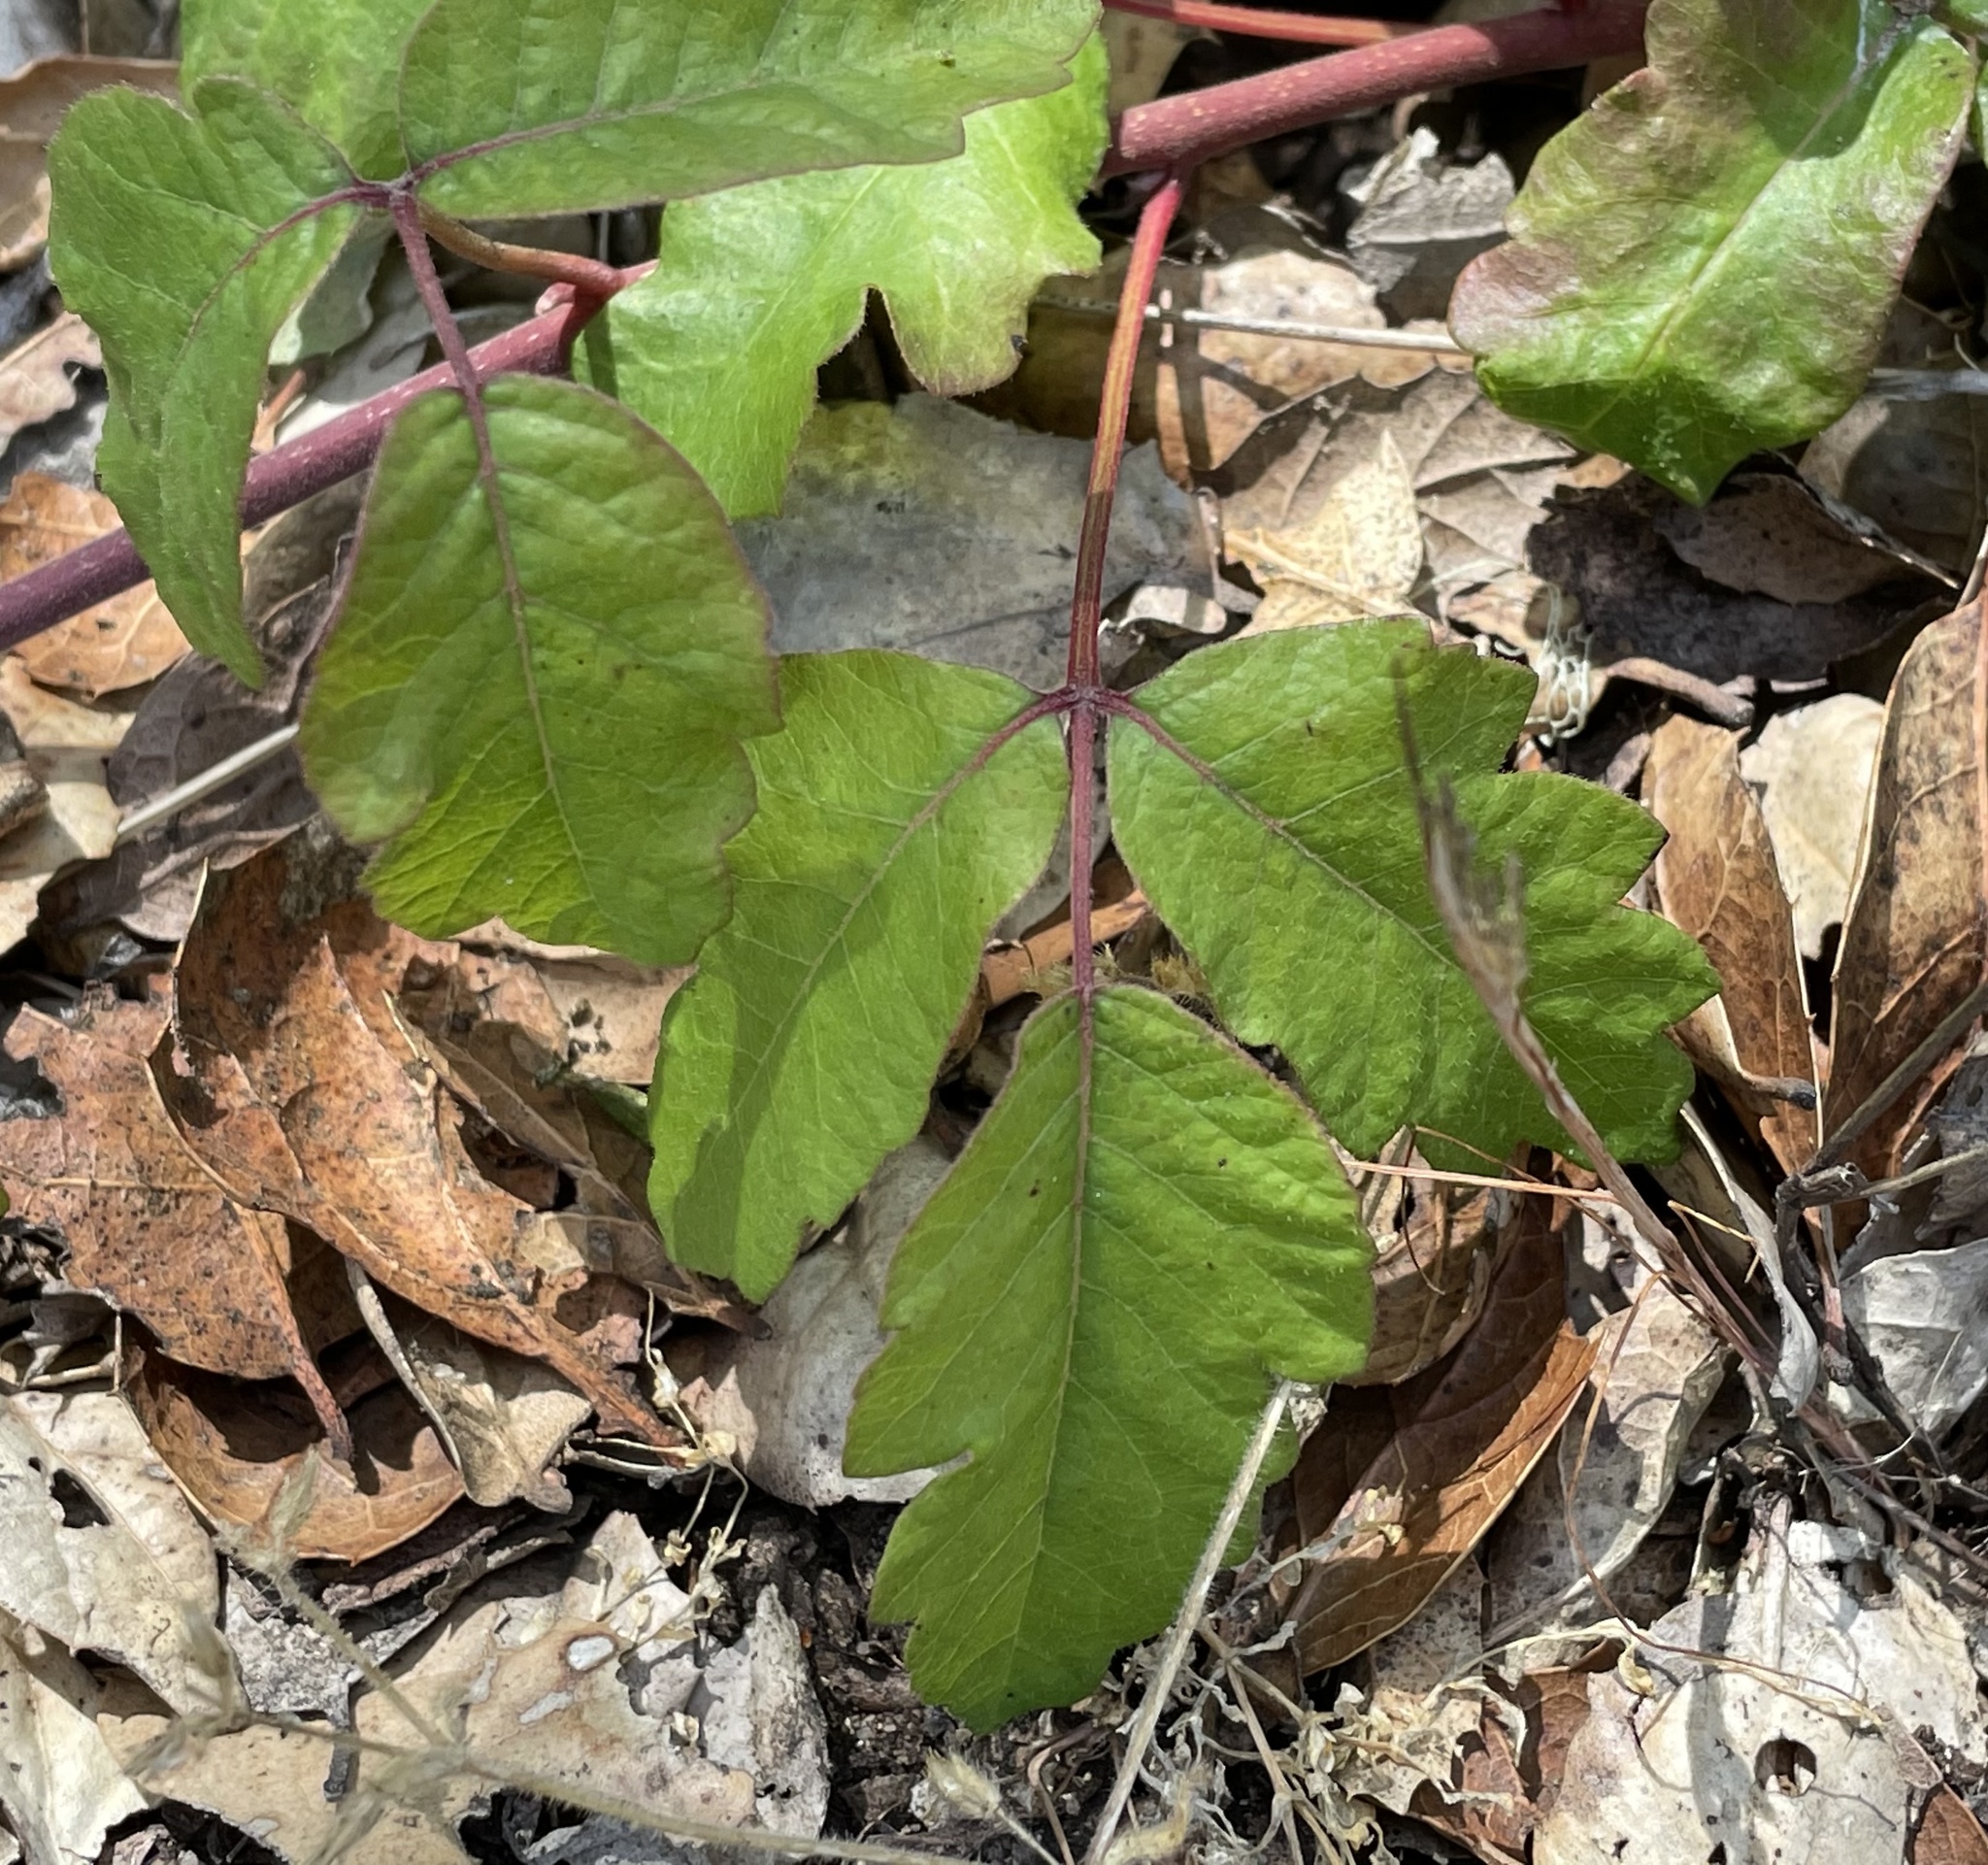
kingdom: Plantae
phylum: Tracheophyta
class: Magnoliopsida
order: Sapindales
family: Anacardiaceae
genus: Toxicodendron
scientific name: Toxicodendron diversilobum
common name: Pacific poison-oak
